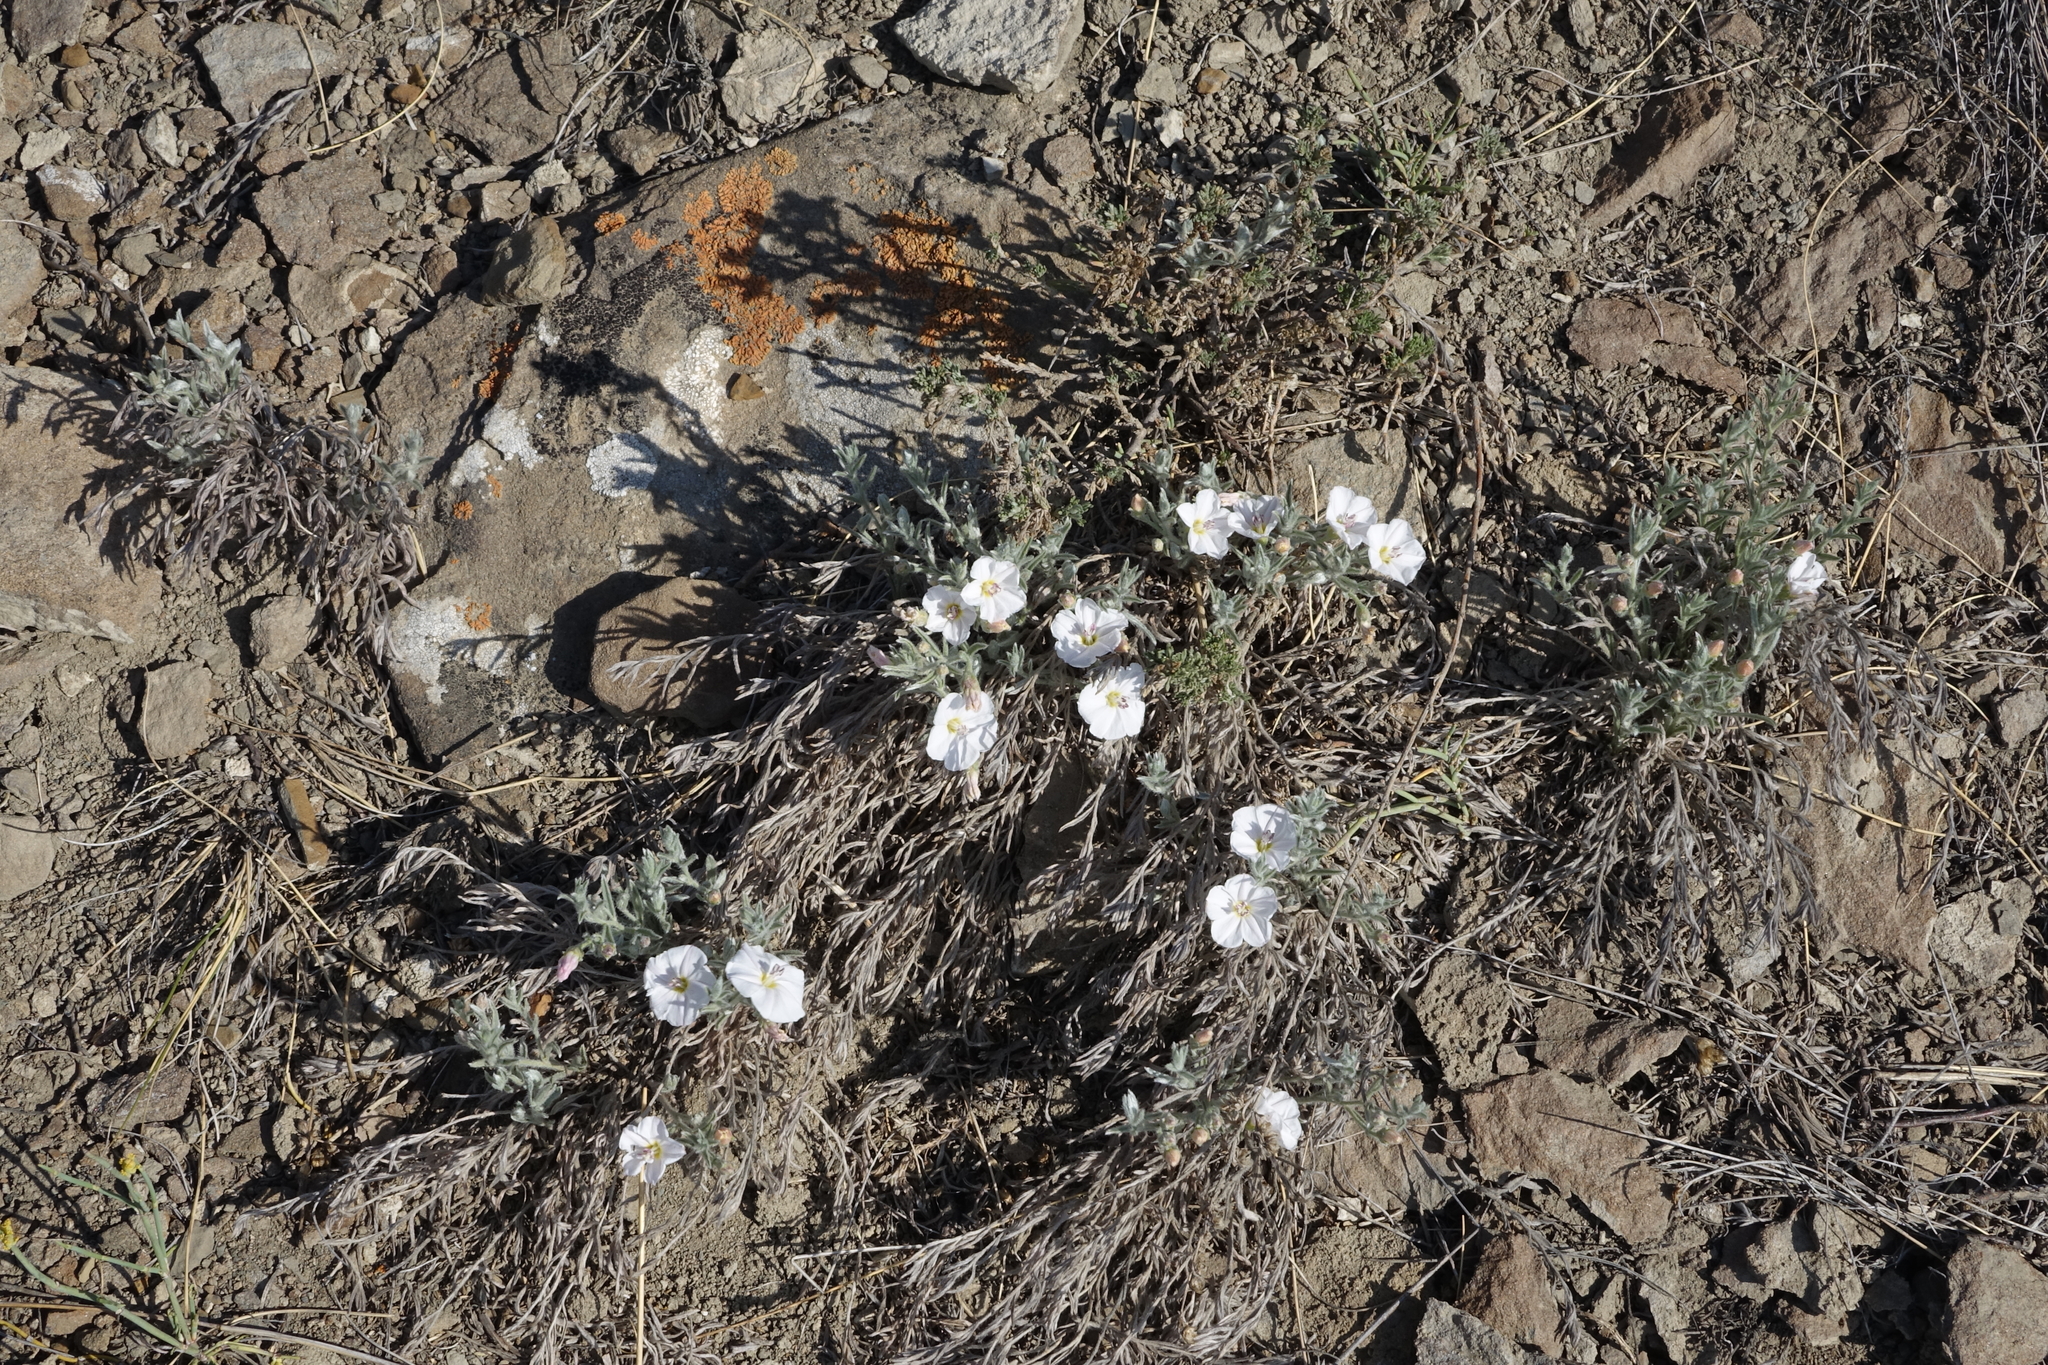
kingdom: Plantae
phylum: Tracheophyta
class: Magnoliopsida
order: Solanales
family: Convolvulaceae
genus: Convolvulus
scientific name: Convolvulus ammannii
